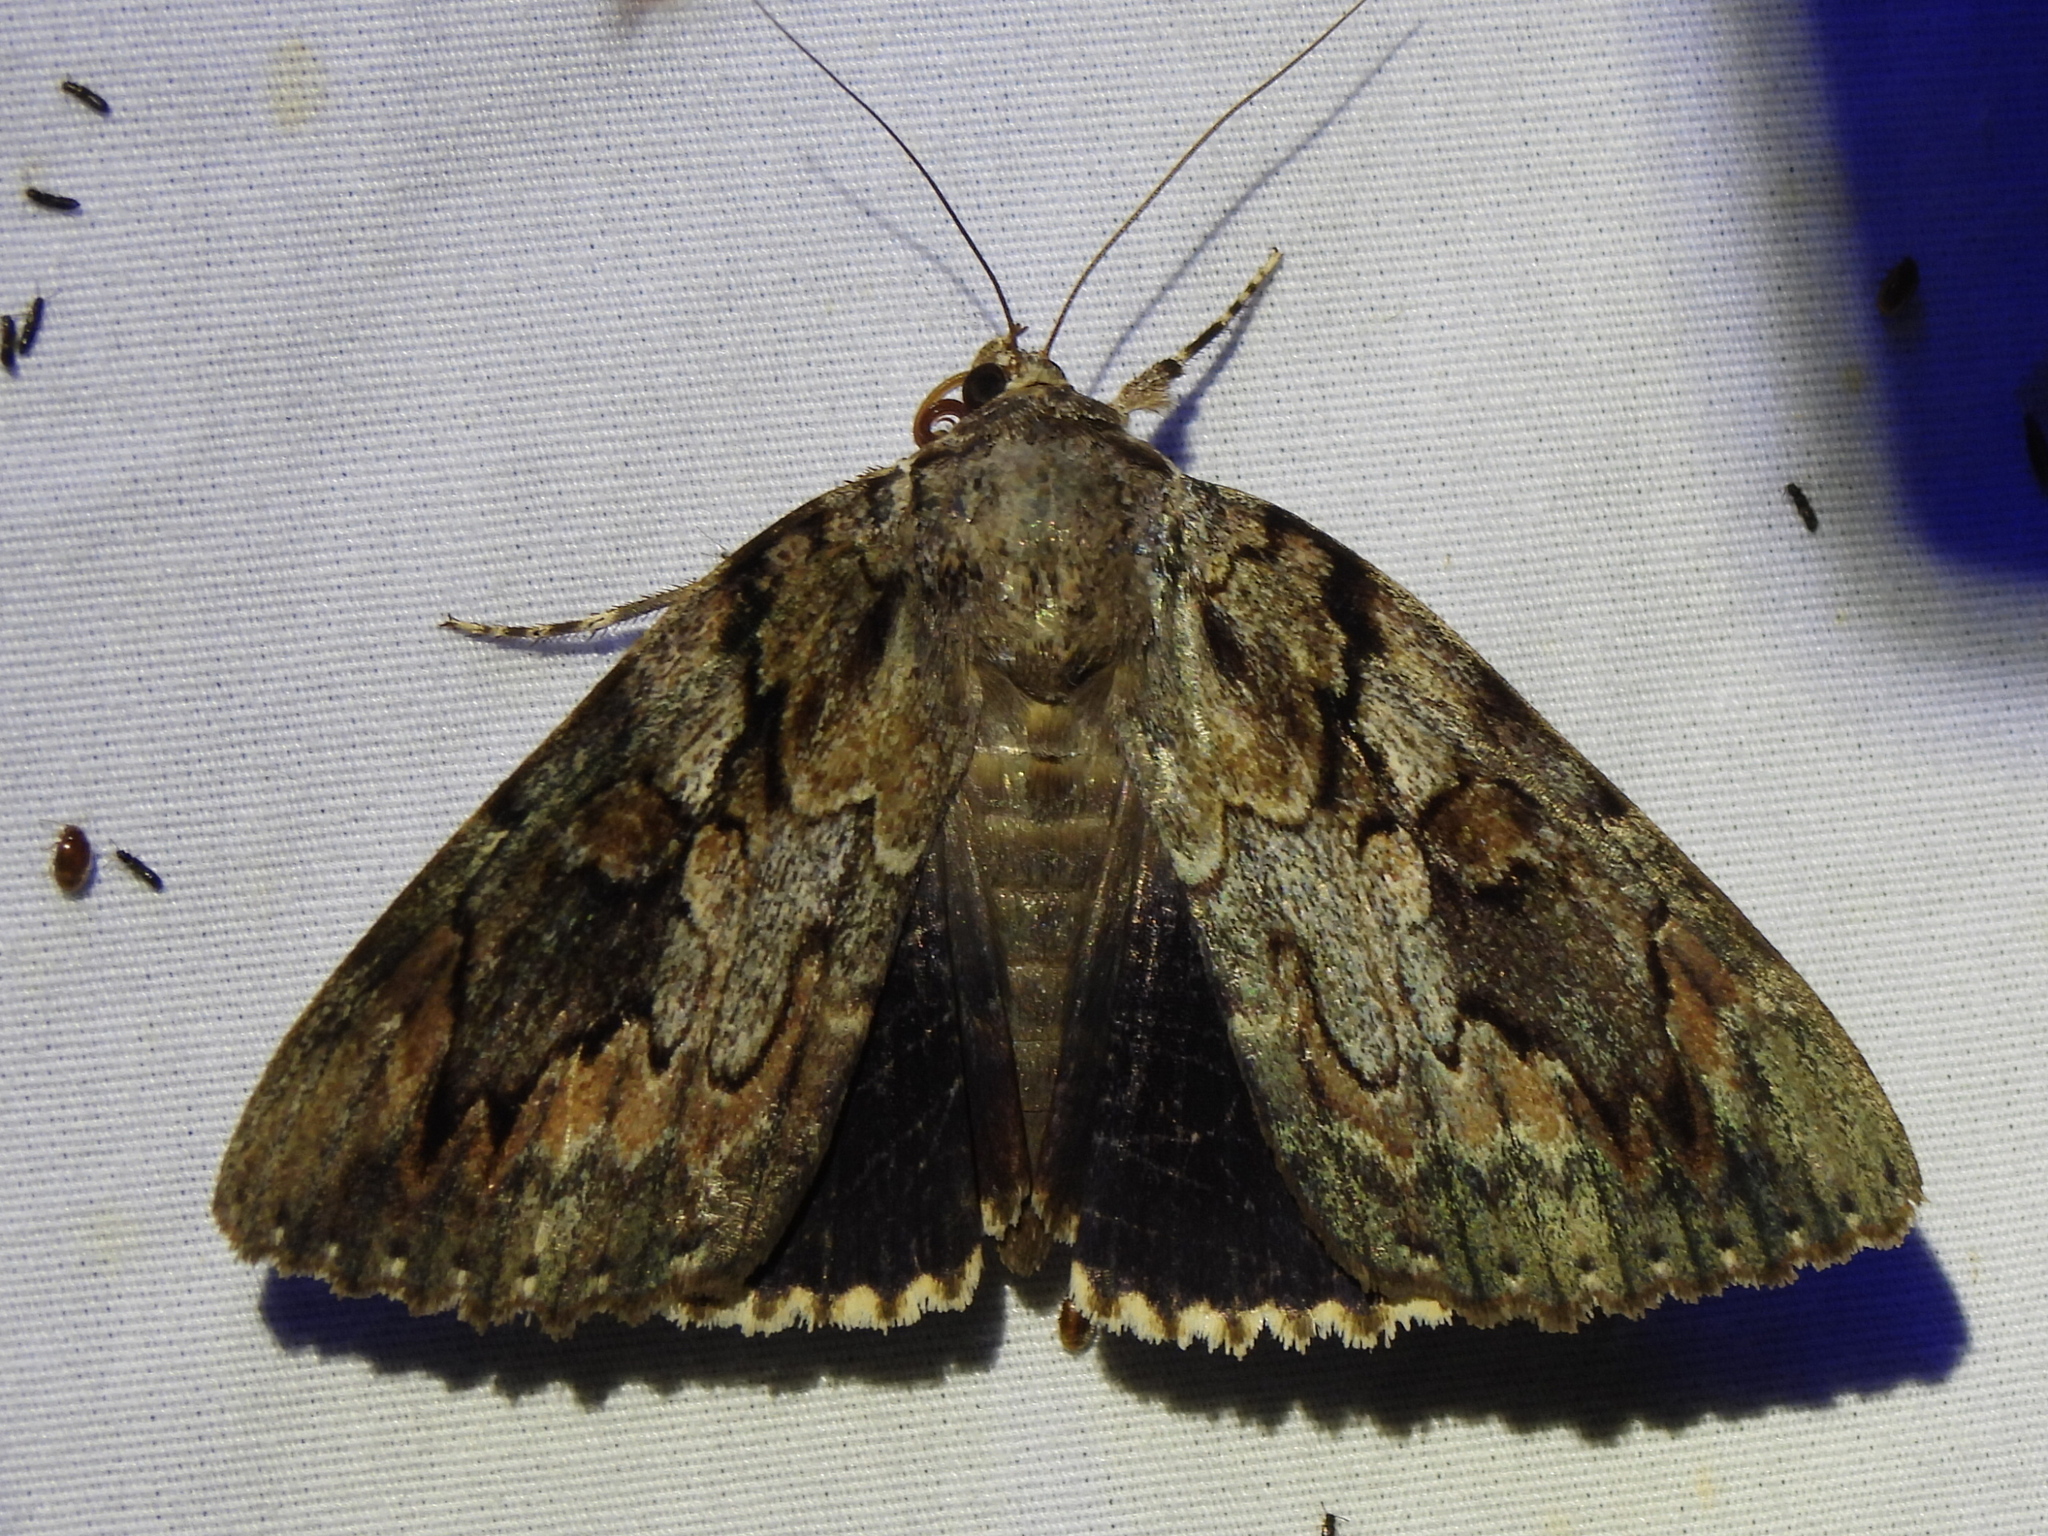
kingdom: Animalia
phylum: Arthropoda
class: Insecta
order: Lepidoptera
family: Erebidae
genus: Catocala
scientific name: Catocala agrippina
